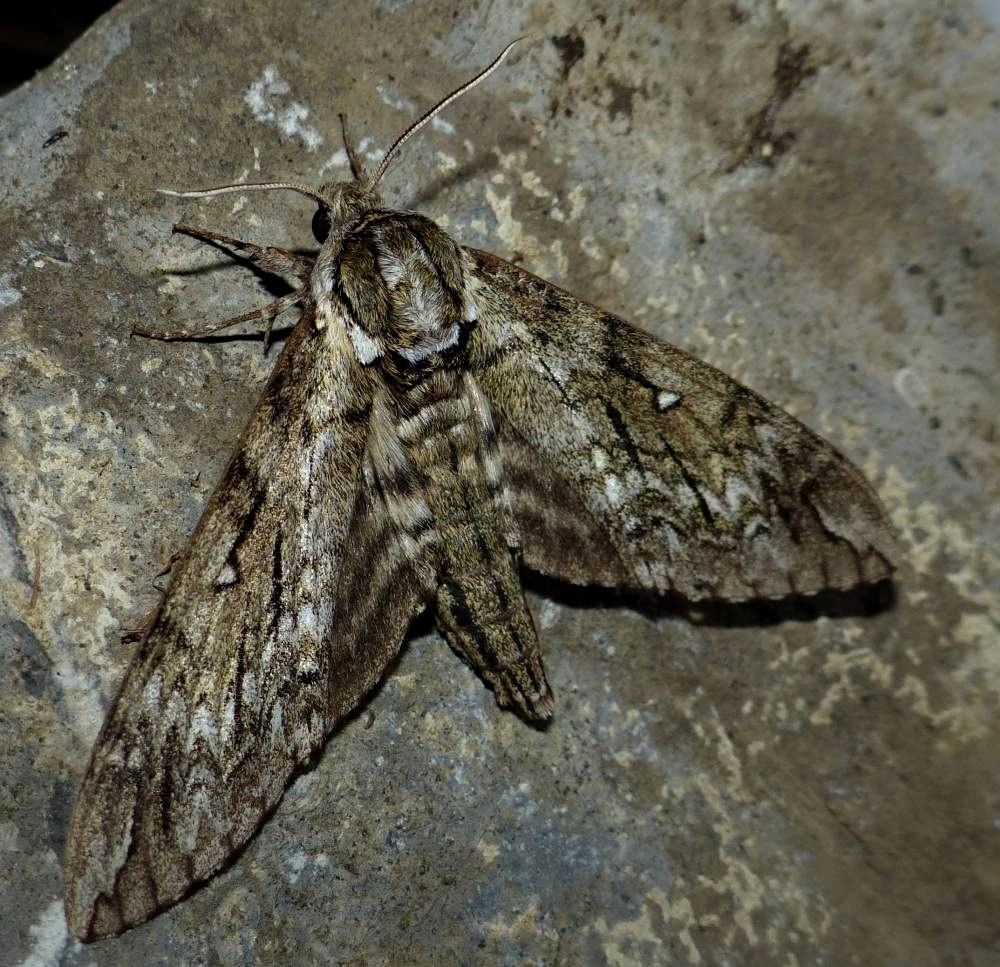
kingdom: Animalia
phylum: Arthropoda
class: Insecta
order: Lepidoptera
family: Sphingidae
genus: Ceratomia
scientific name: Ceratomia undulosa
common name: Waved sphinx
